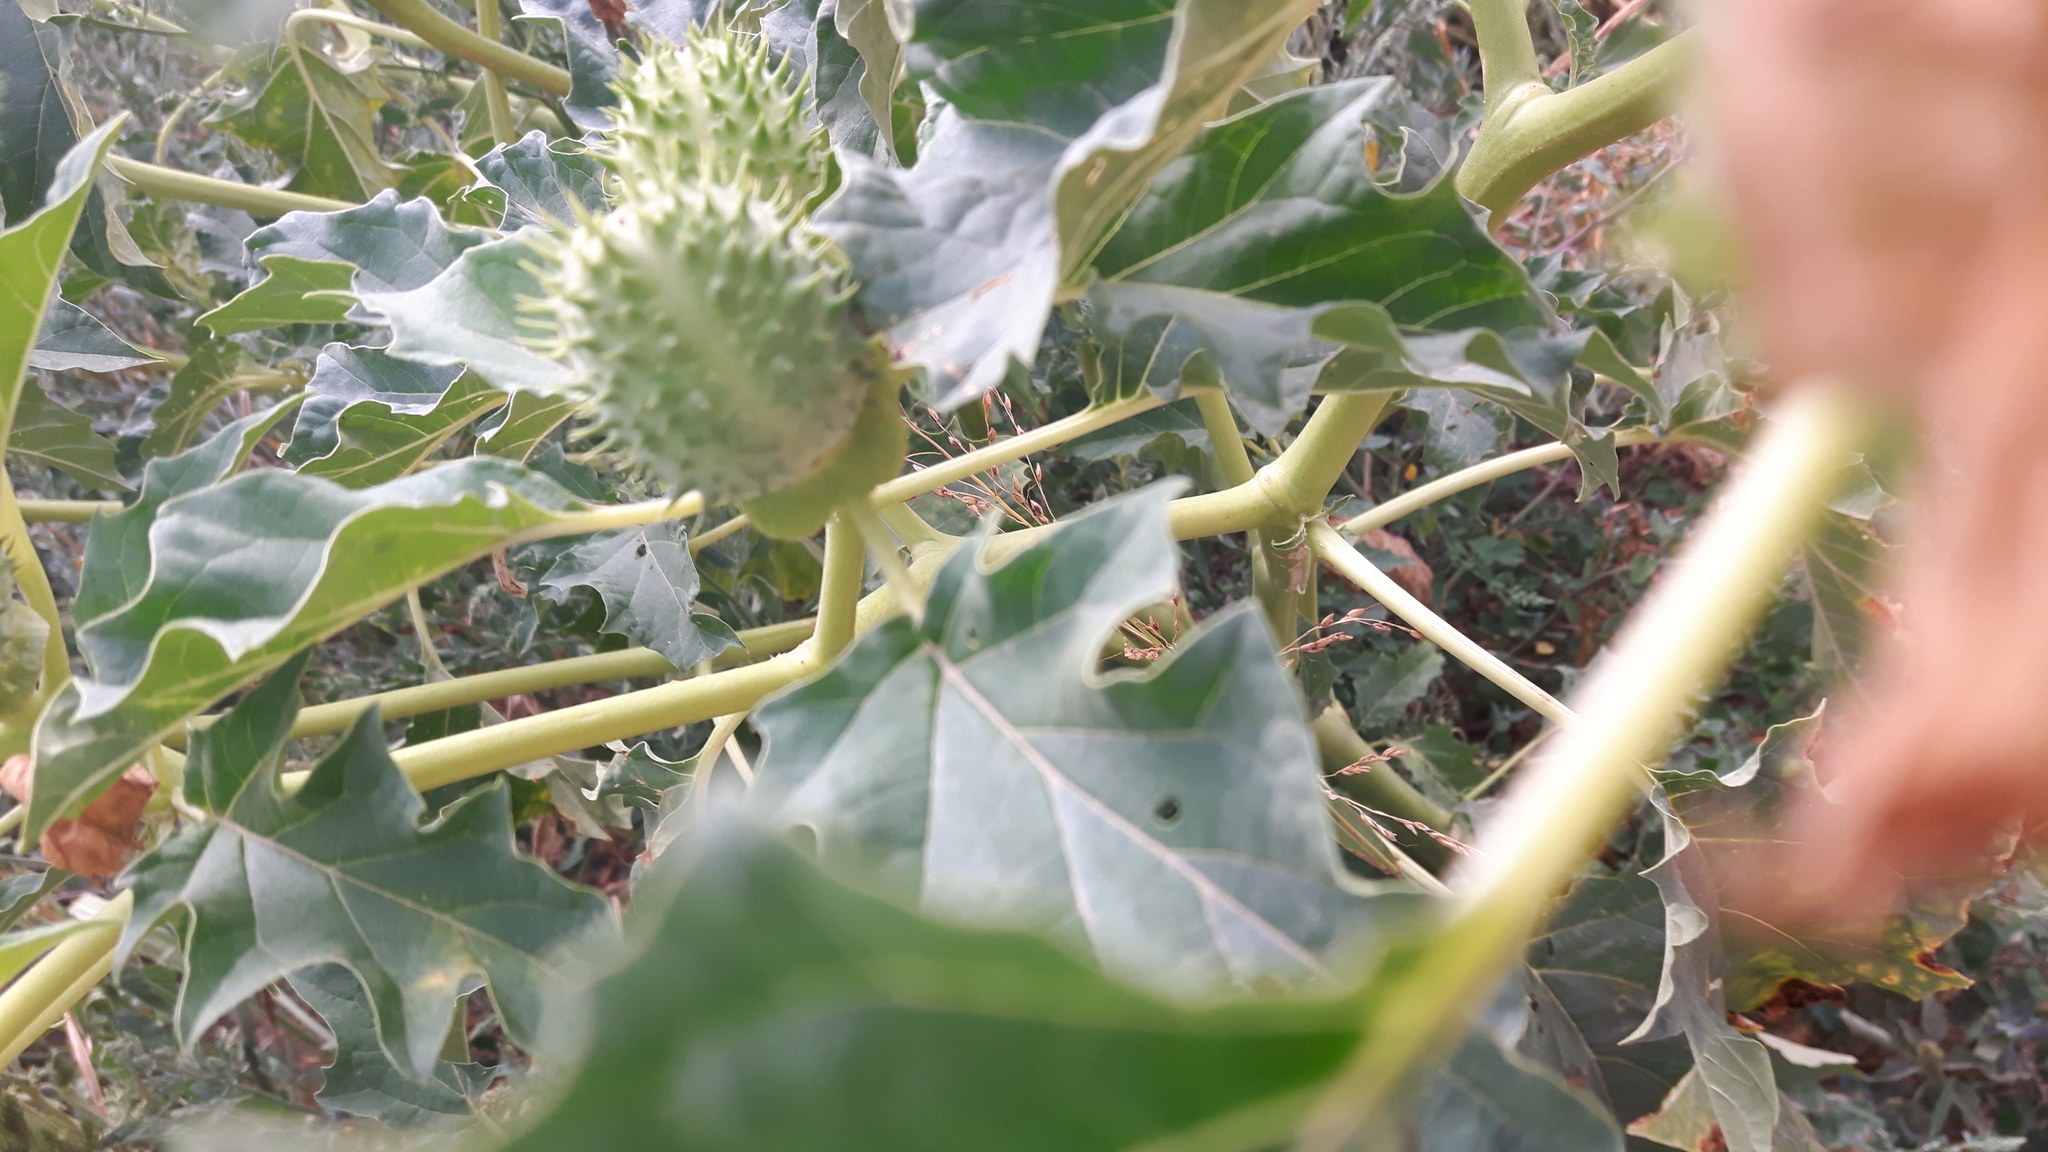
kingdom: Plantae
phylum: Tracheophyta
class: Magnoliopsida
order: Solanales
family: Solanaceae
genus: Datura
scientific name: Datura stramonium
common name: Thorn-apple
